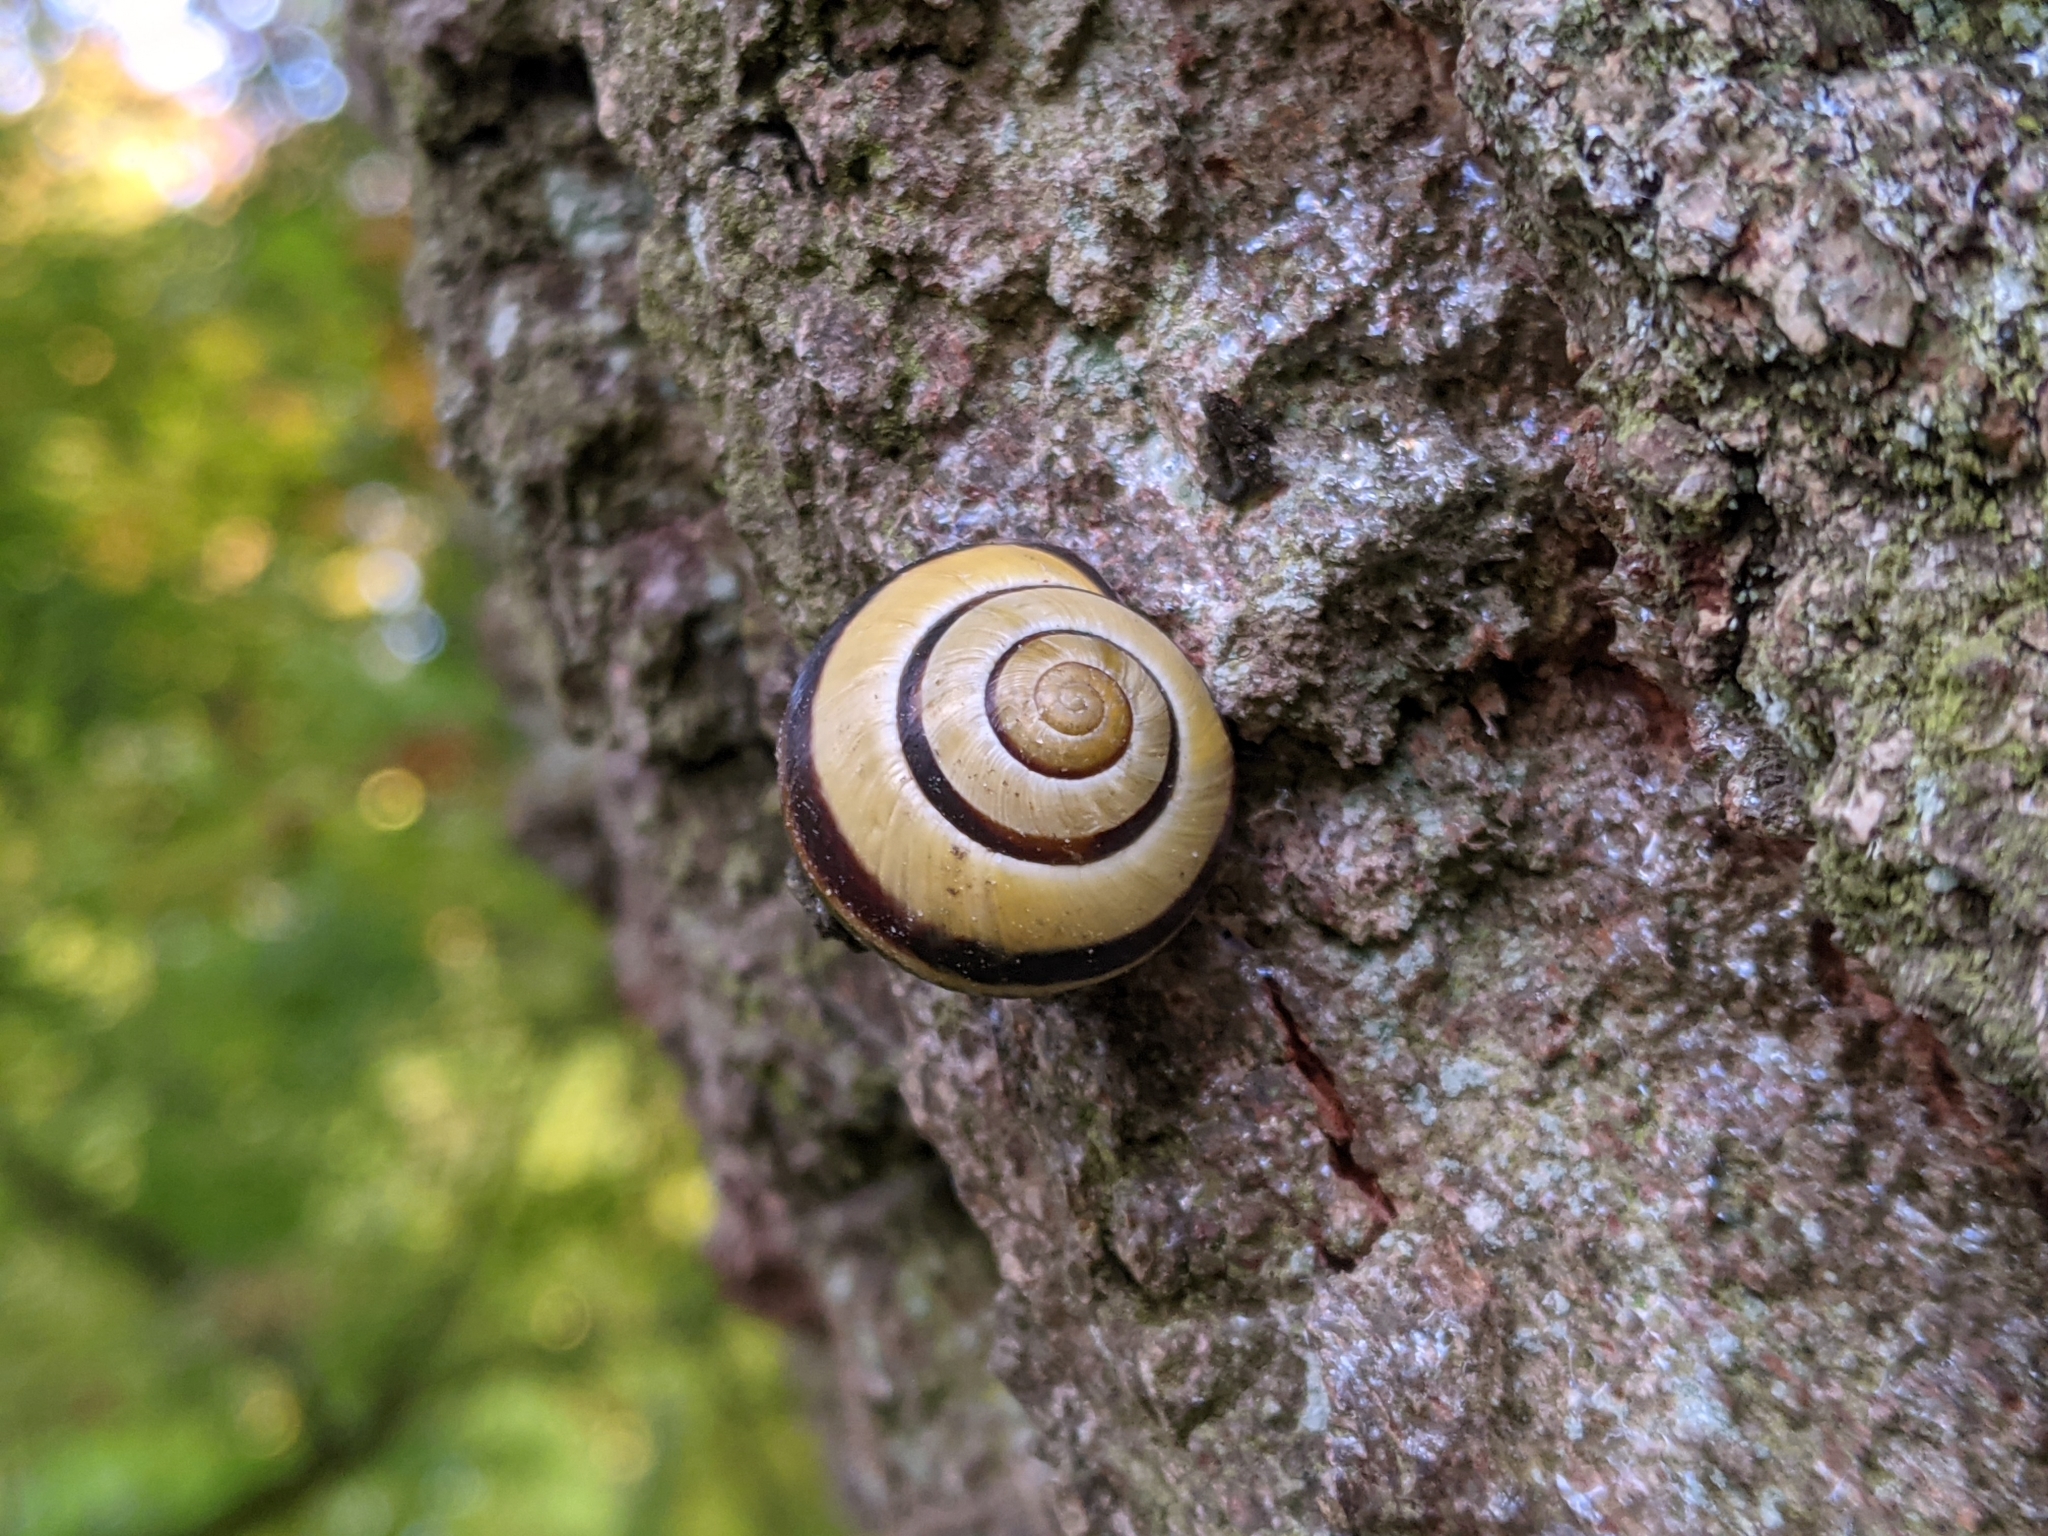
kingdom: Animalia
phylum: Mollusca
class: Gastropoda
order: Stylommatophora
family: Helicidae
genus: Cepaea
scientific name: Cepaea nemoralis
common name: Grovesnail
